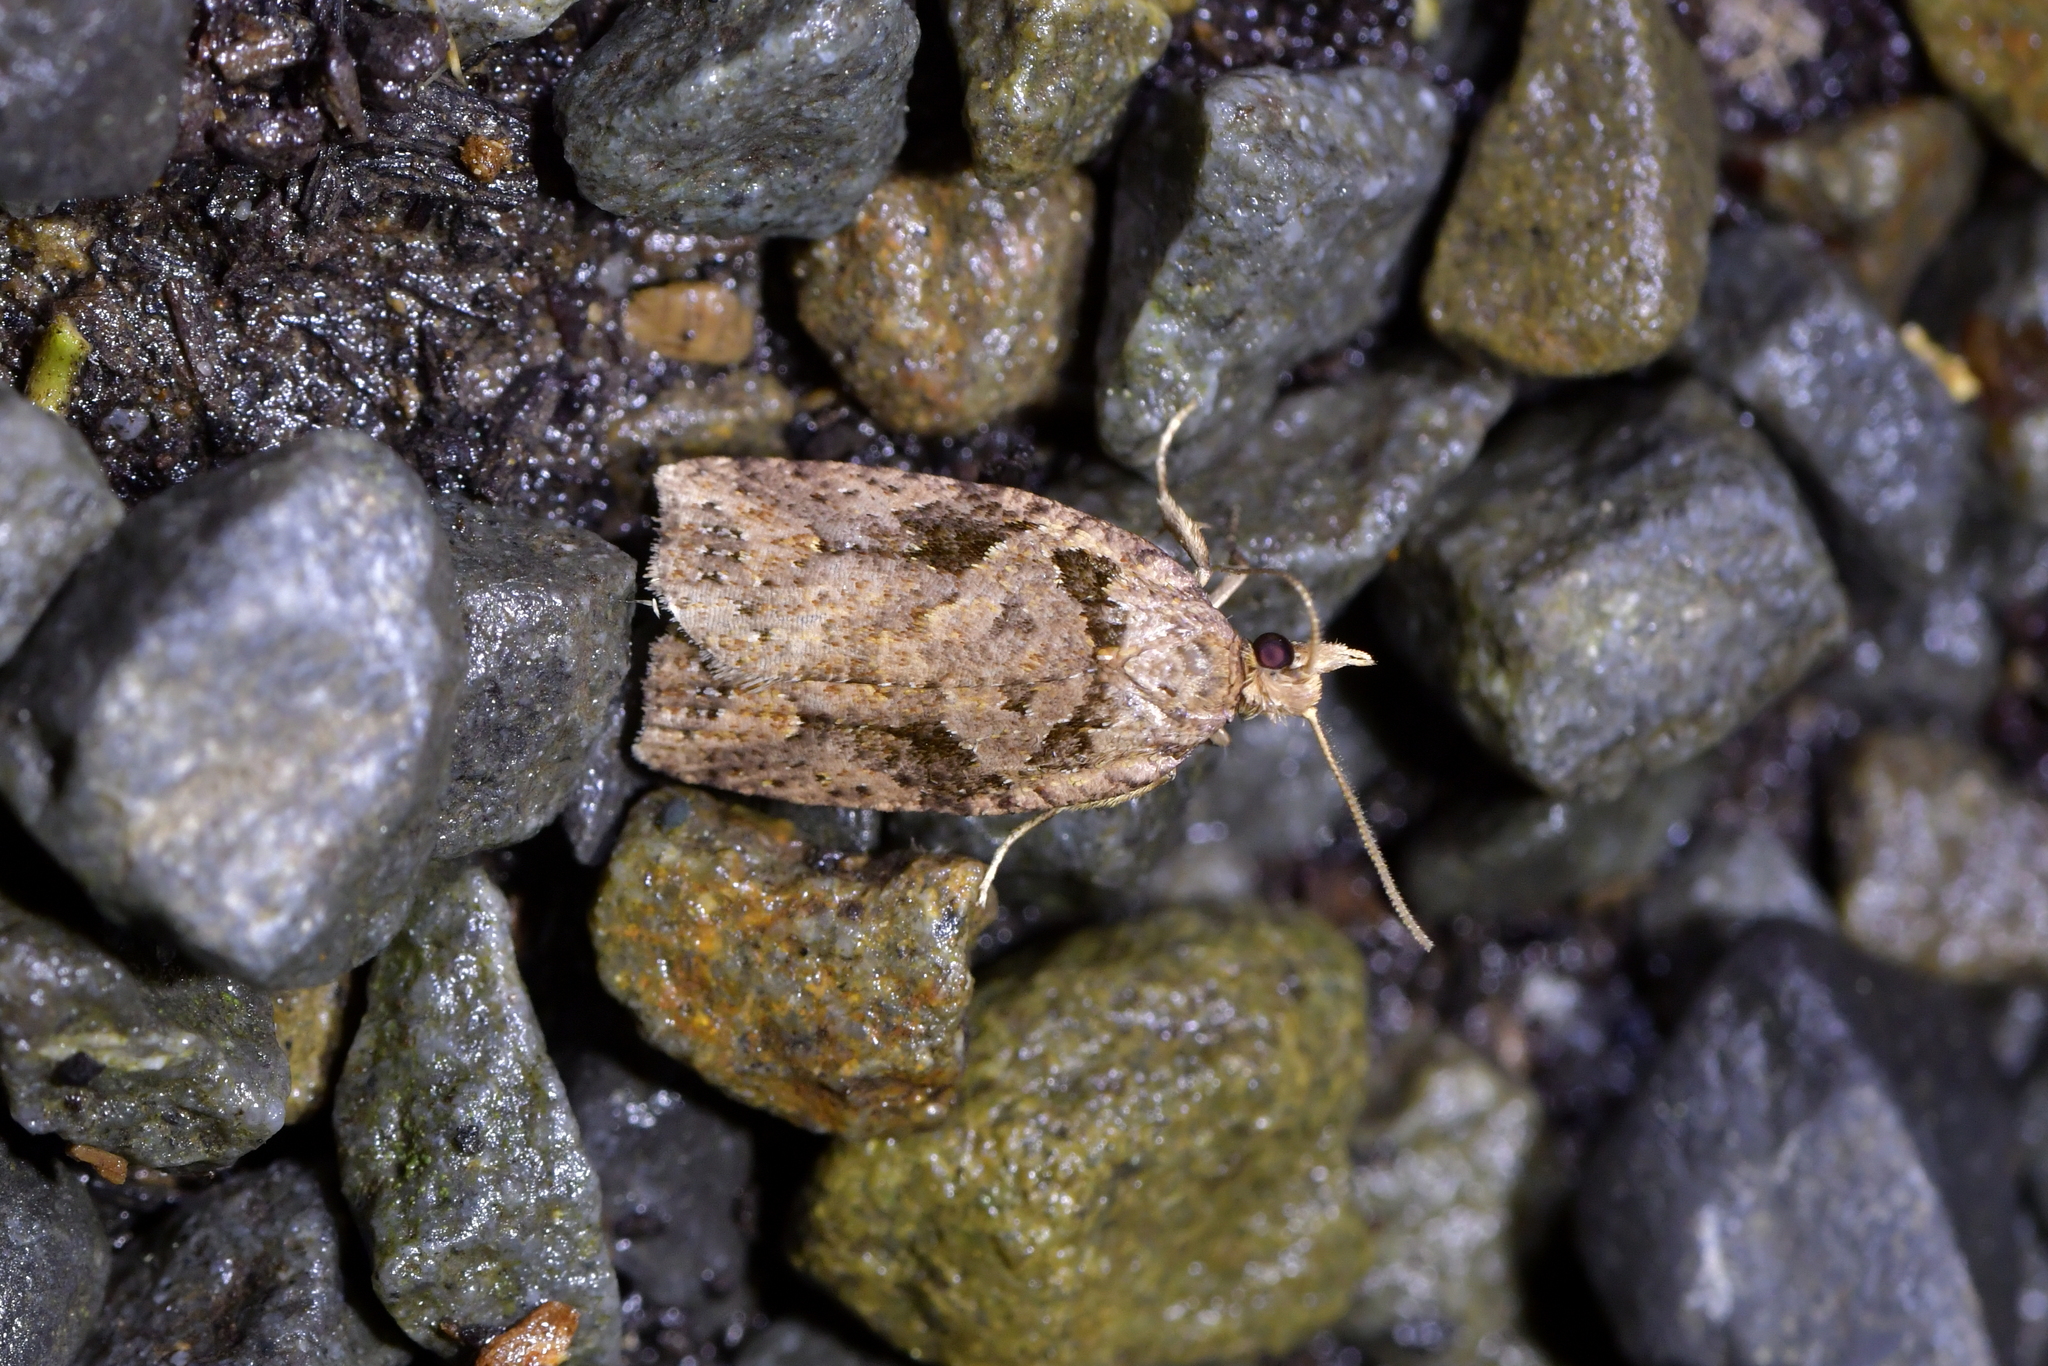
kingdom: Animalia
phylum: Arthropoda
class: Insecta
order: Lepidoptera
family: Tortricidae
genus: Ctenopseustis
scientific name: Ctenopseustis obliquana
